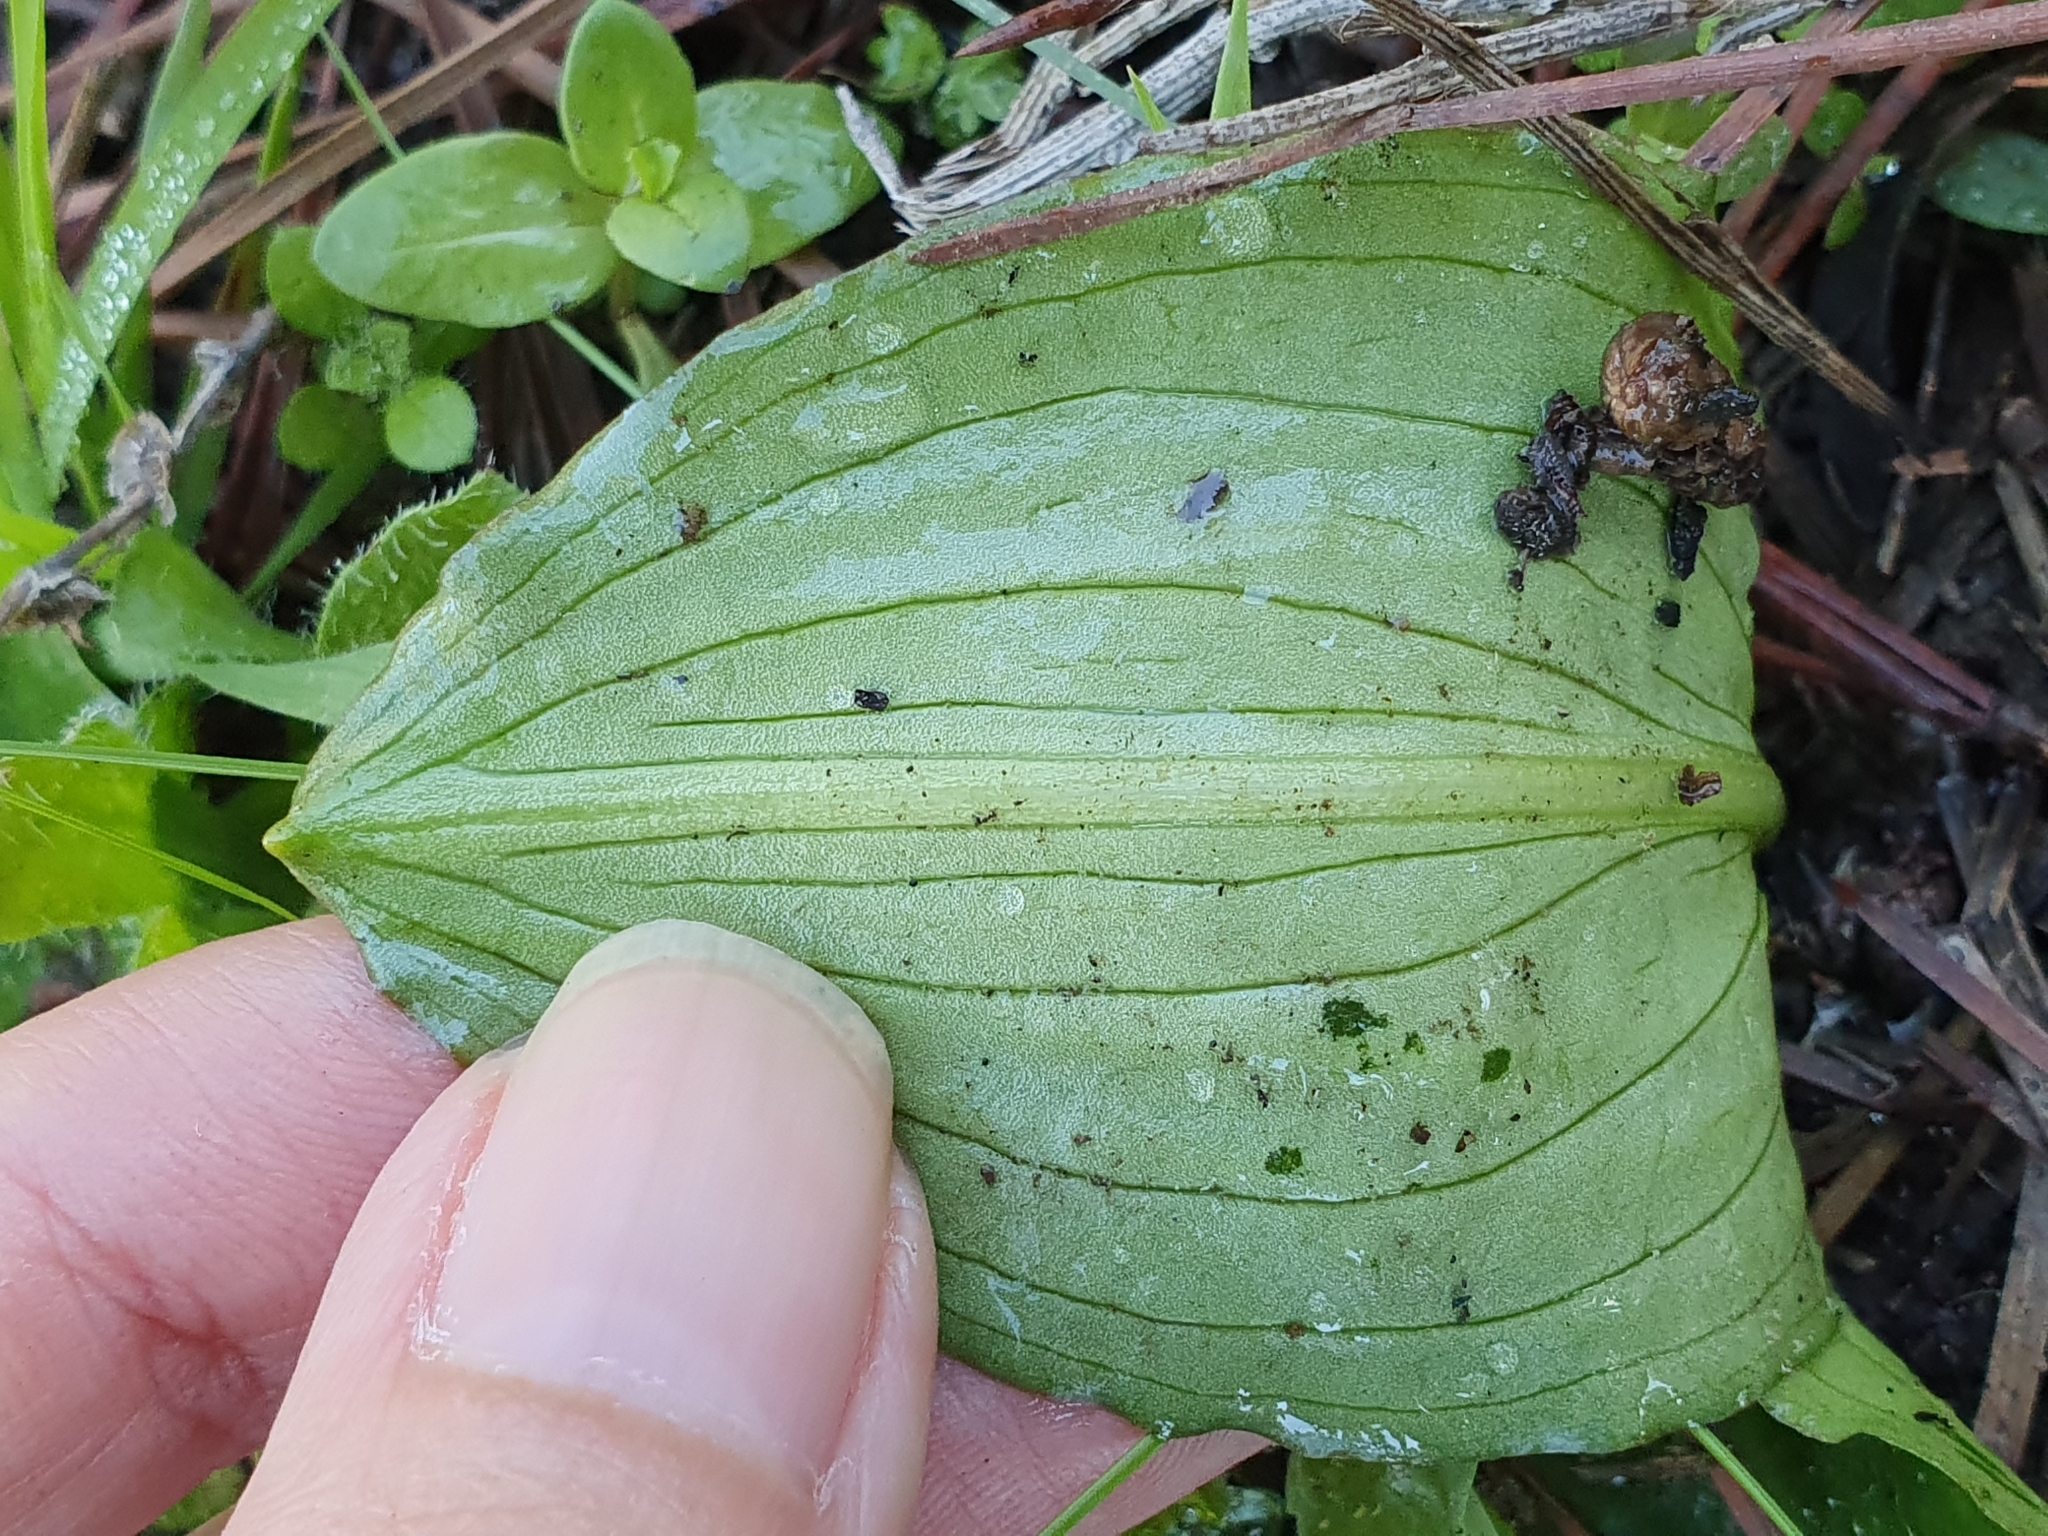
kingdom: Plantae
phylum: Tracheophyta
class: Liliopsida
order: Alismatales
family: Araceae
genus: Ambrosina
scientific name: Ambrosina bassii
